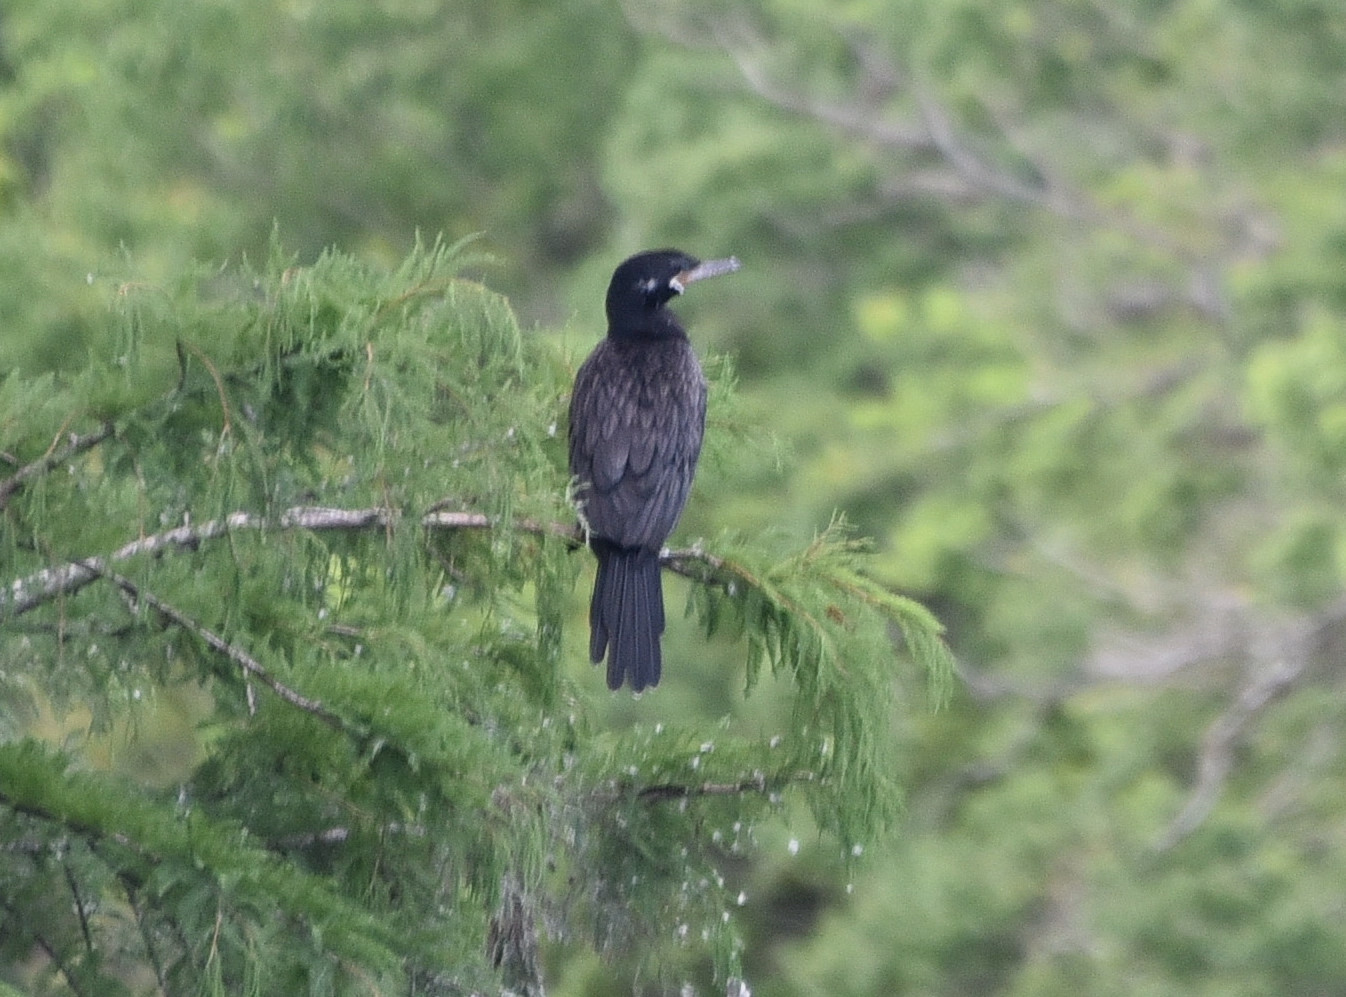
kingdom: Animalia
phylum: Chordata
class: Aves
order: Suliformes
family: Phalacrocoracidae
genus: Phalacrocorax
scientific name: Phalacrocorax brasilianus
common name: Neotropic cormorant
